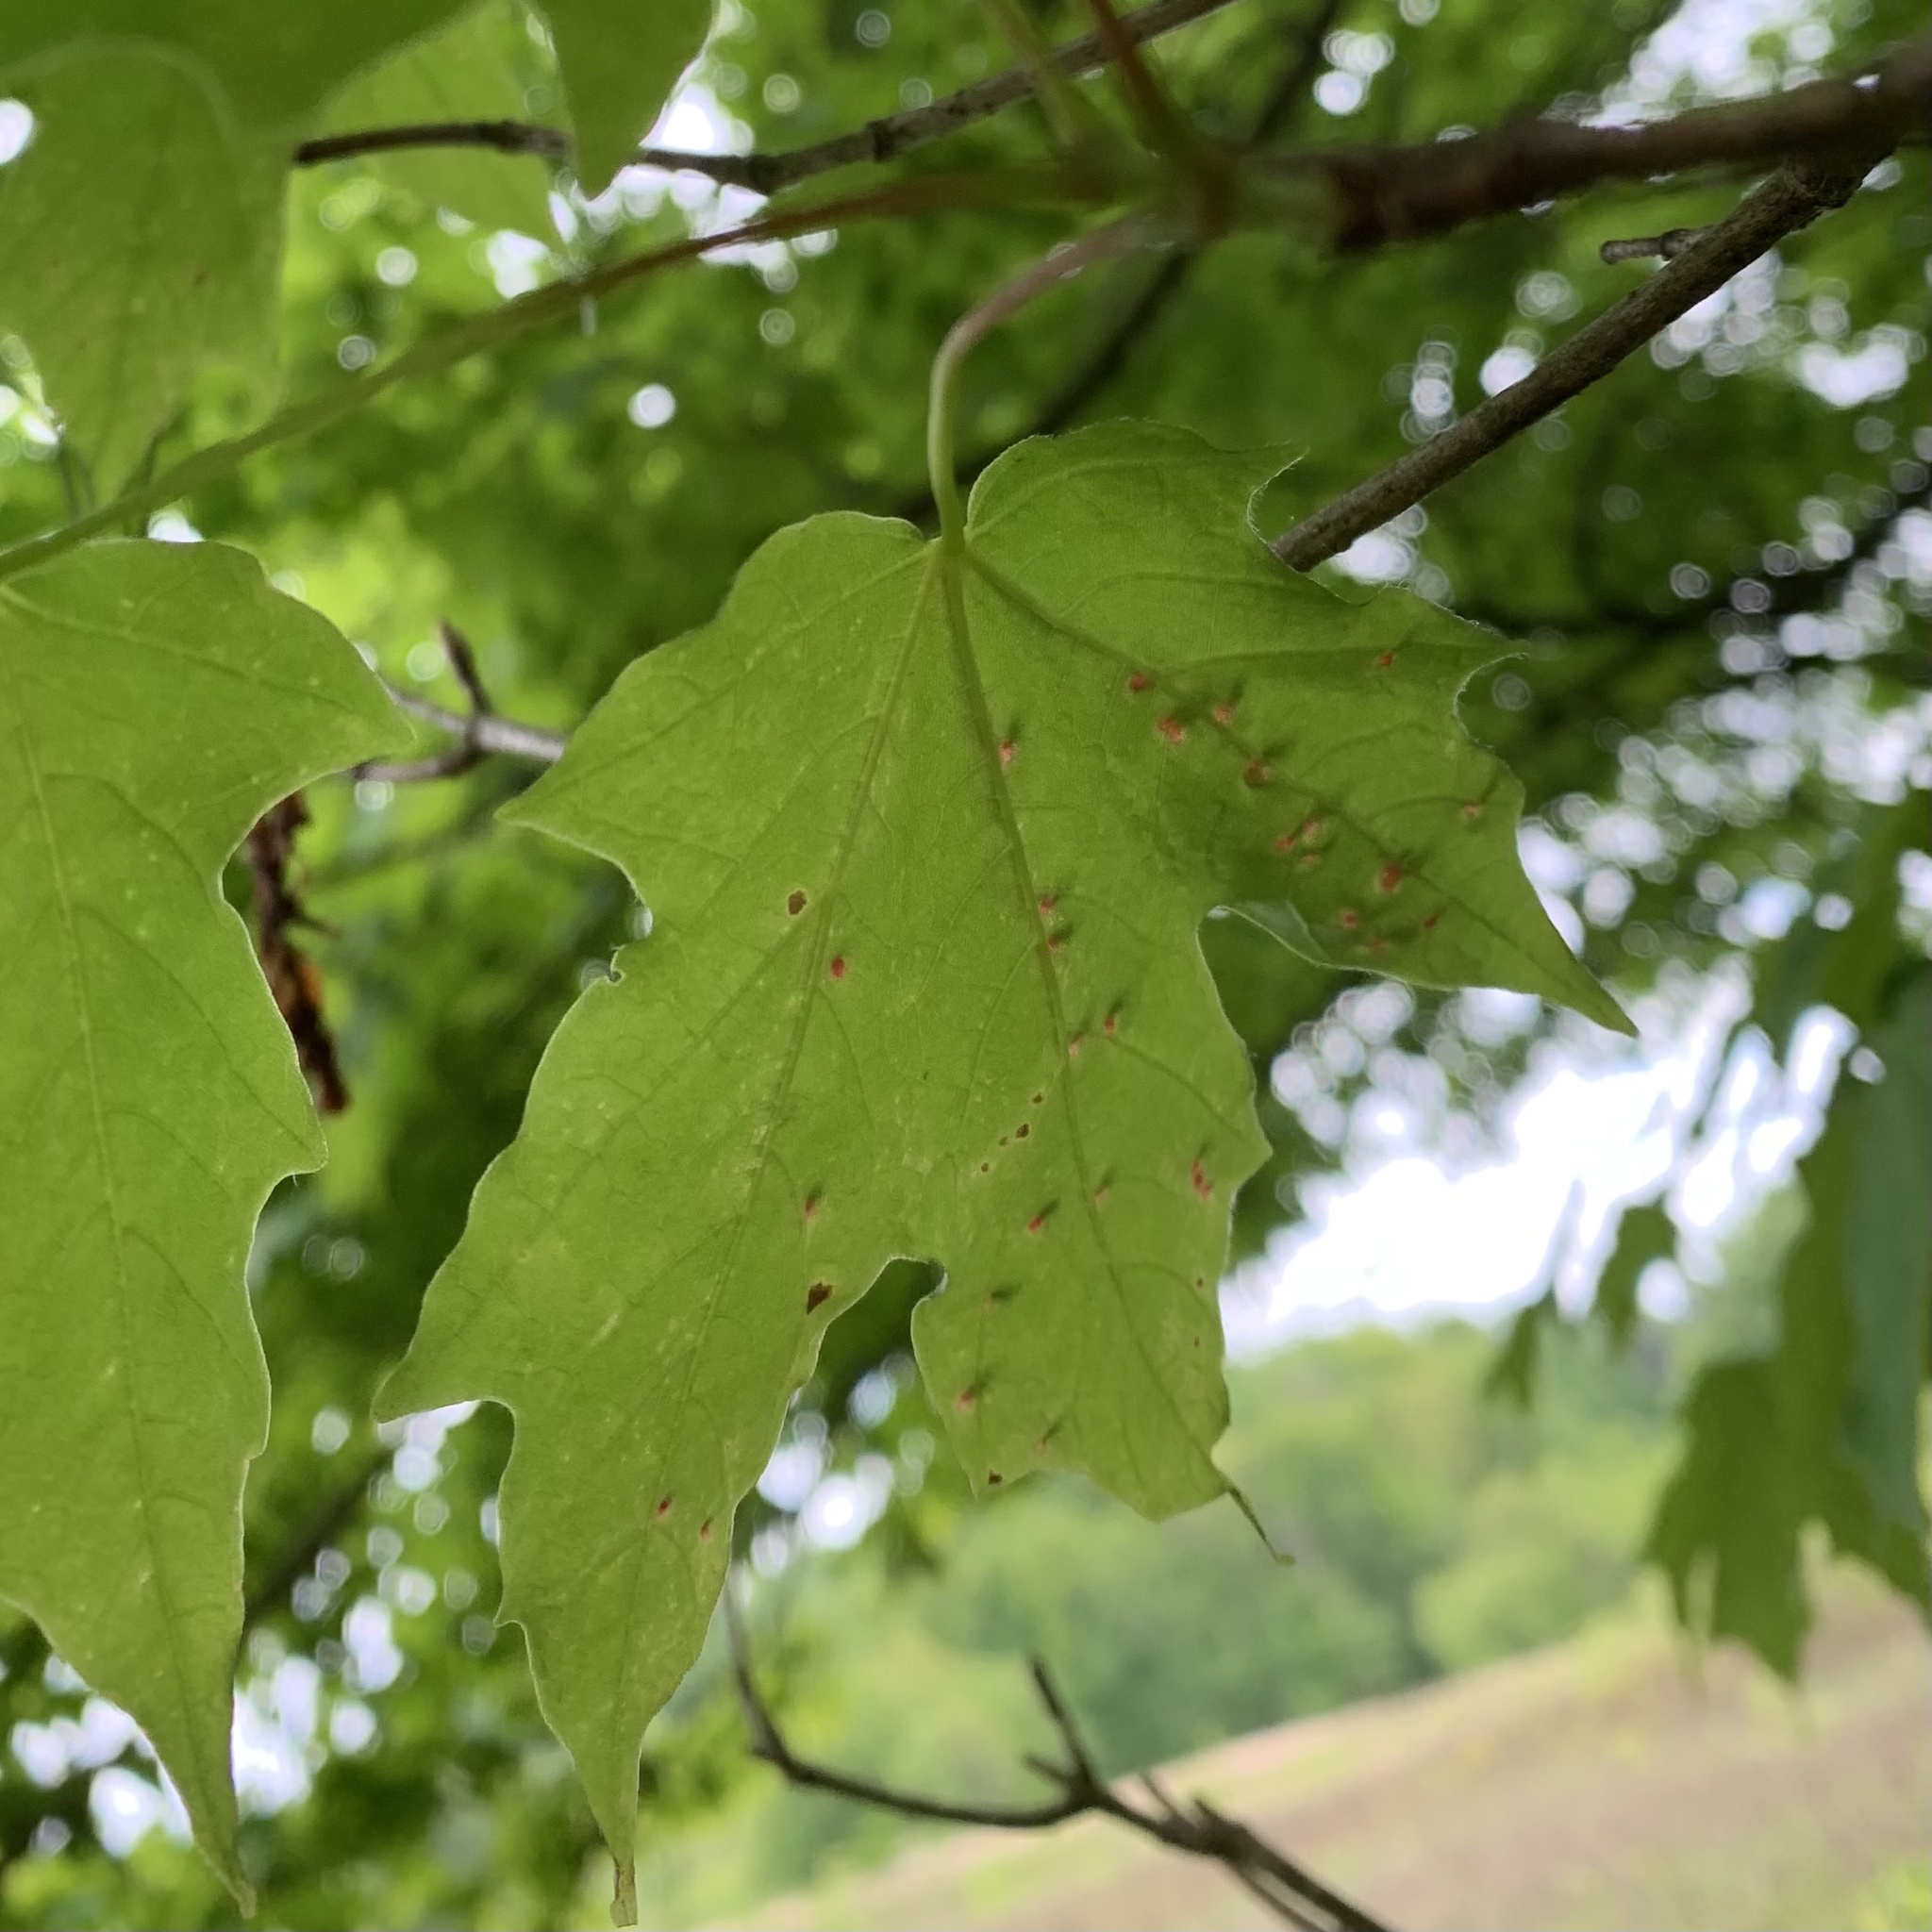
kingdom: Animalia
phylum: Arthropoda
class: Arachnida
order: Trombidiformes
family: Eriophyidae
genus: Vasates
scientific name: Vasates aceriscrumena
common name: Maple spindle gall mite
